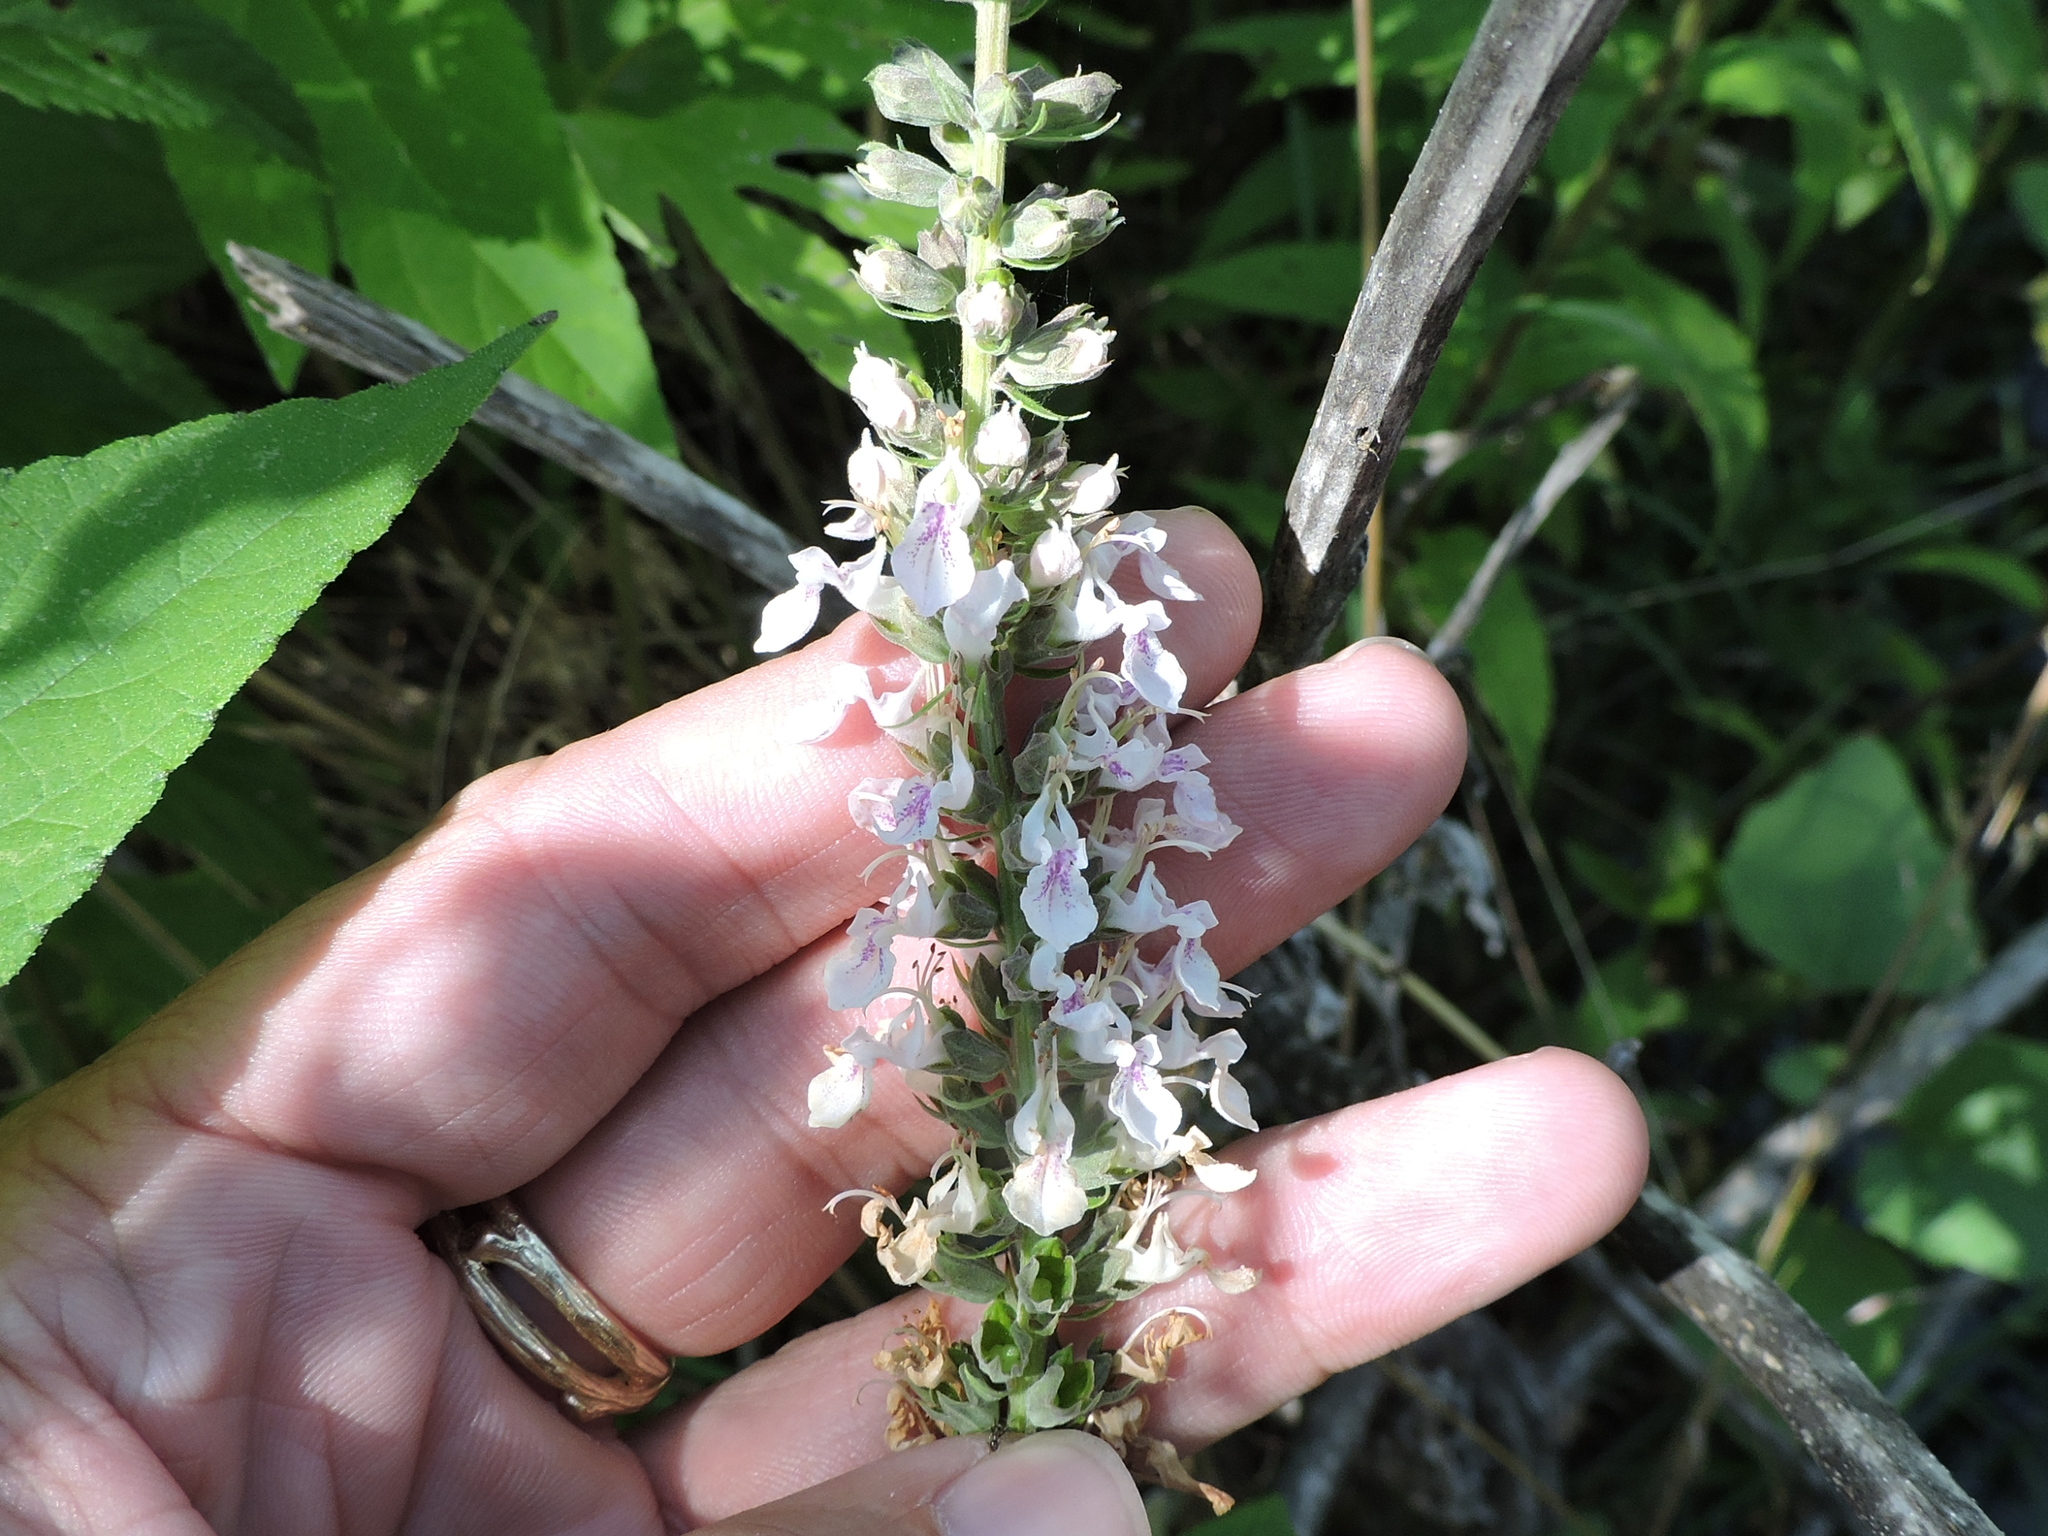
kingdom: Plantae
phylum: Tracheophyta
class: Magnoliopsida
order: Lamiales
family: Lamiaceae
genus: Teucrium
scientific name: Teucrium canadense
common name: American germander
